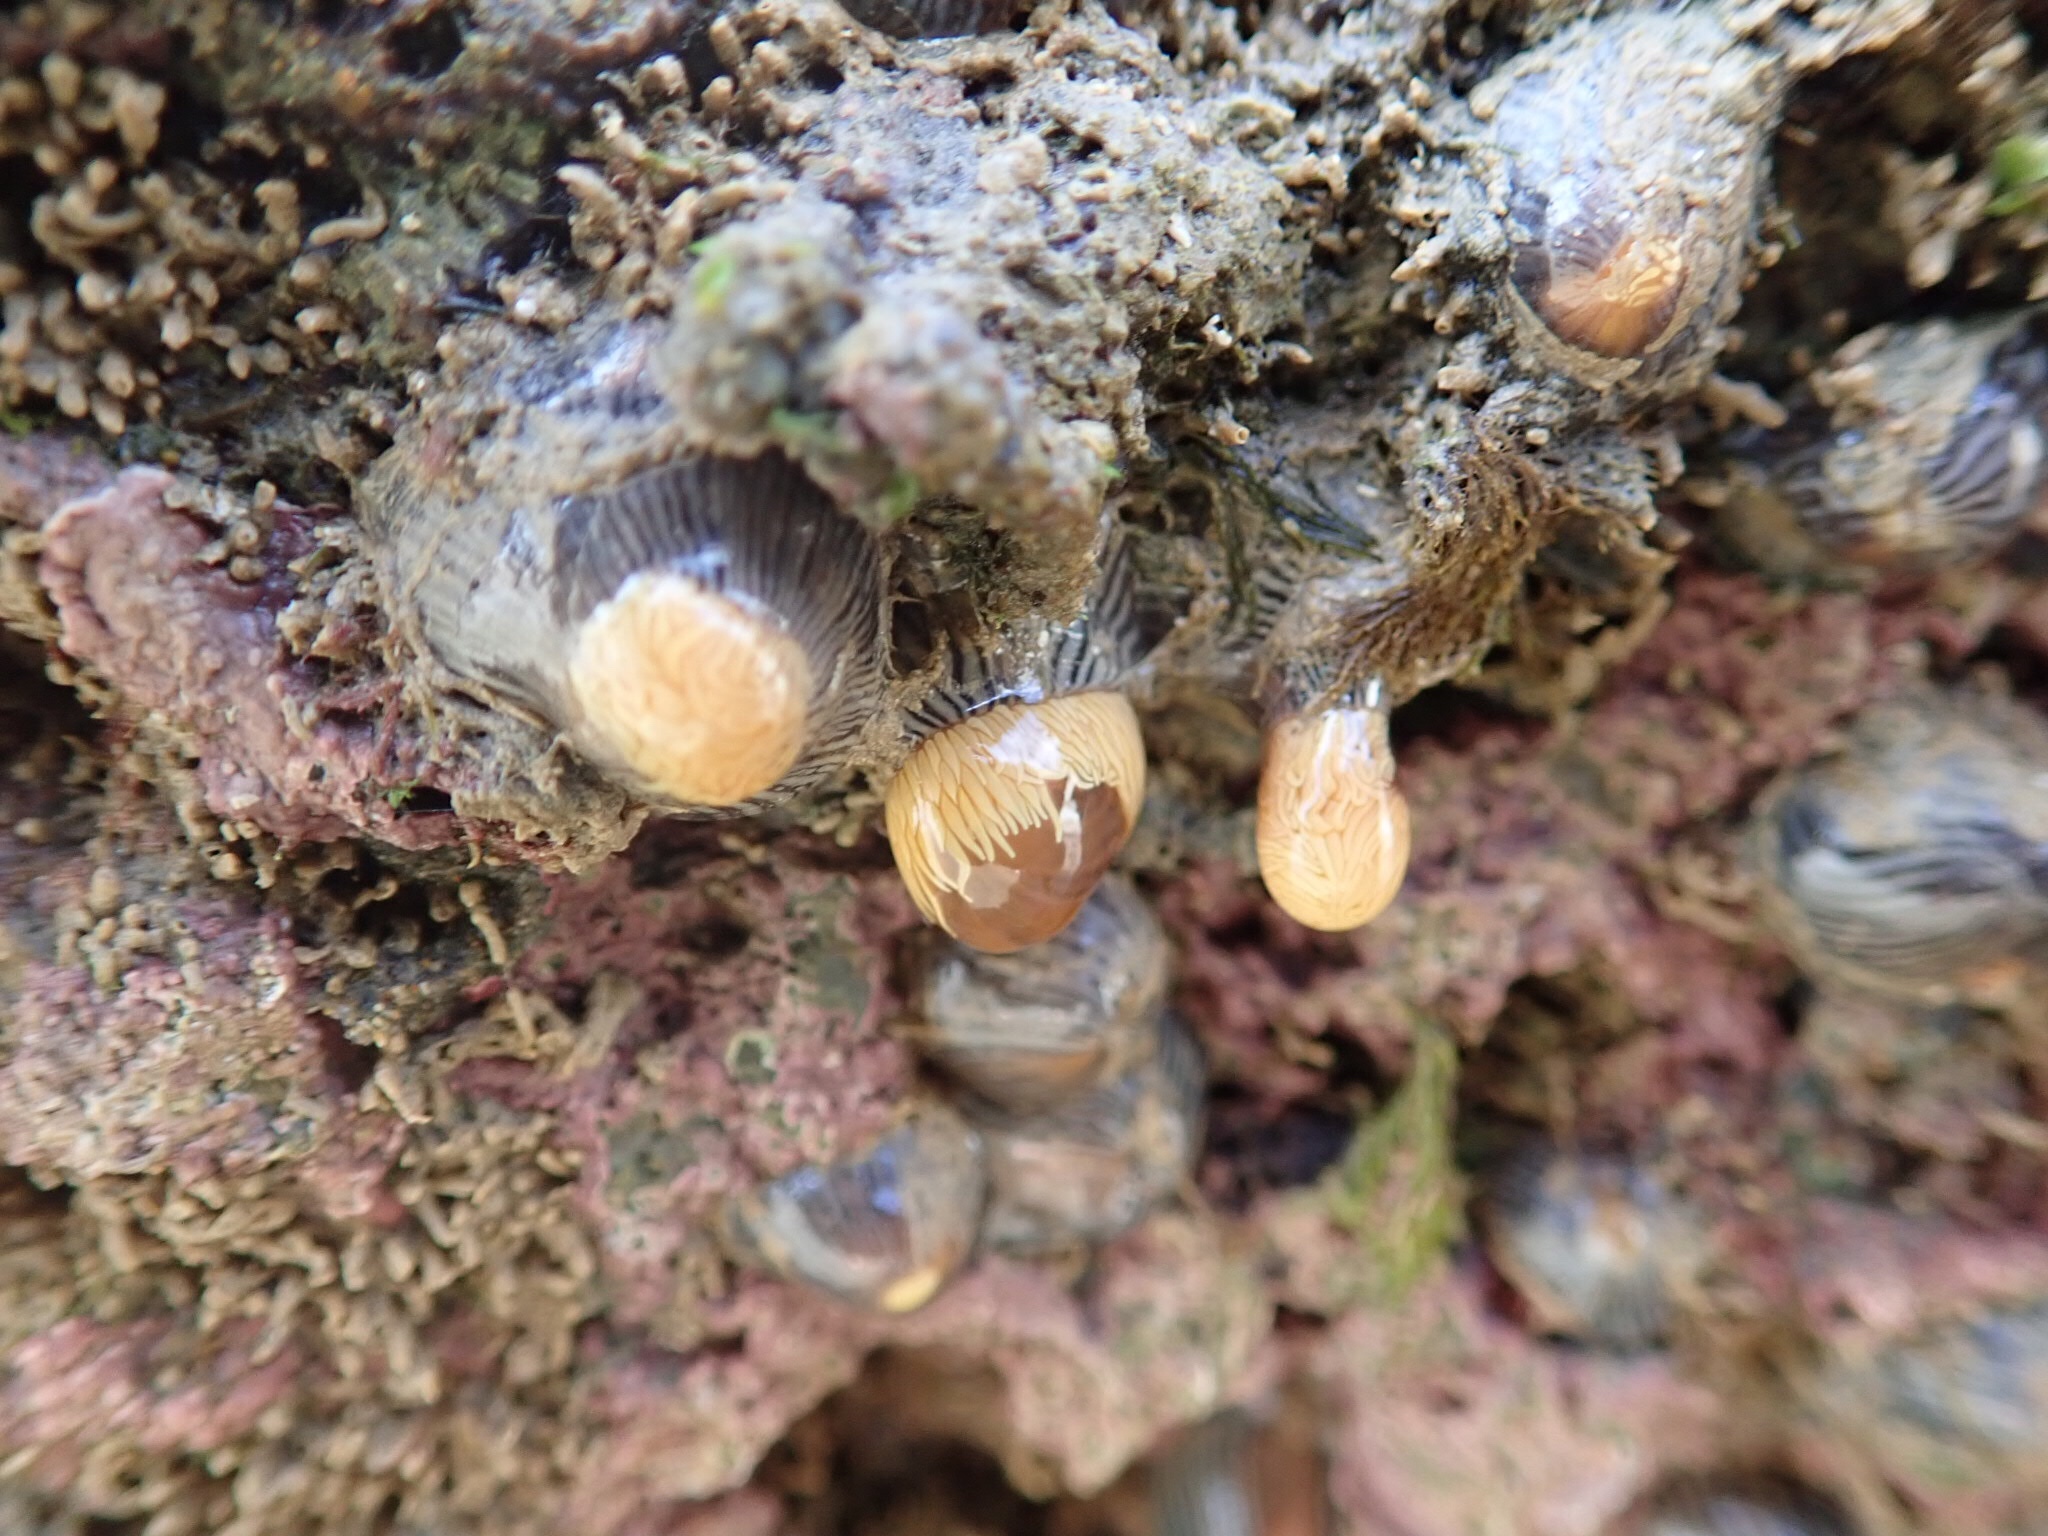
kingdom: Animalia
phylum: Cnidaria
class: Anthozoa
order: Actiniaria
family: Diadumenidae
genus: Diadumene
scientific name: Diadumene neozelanica
